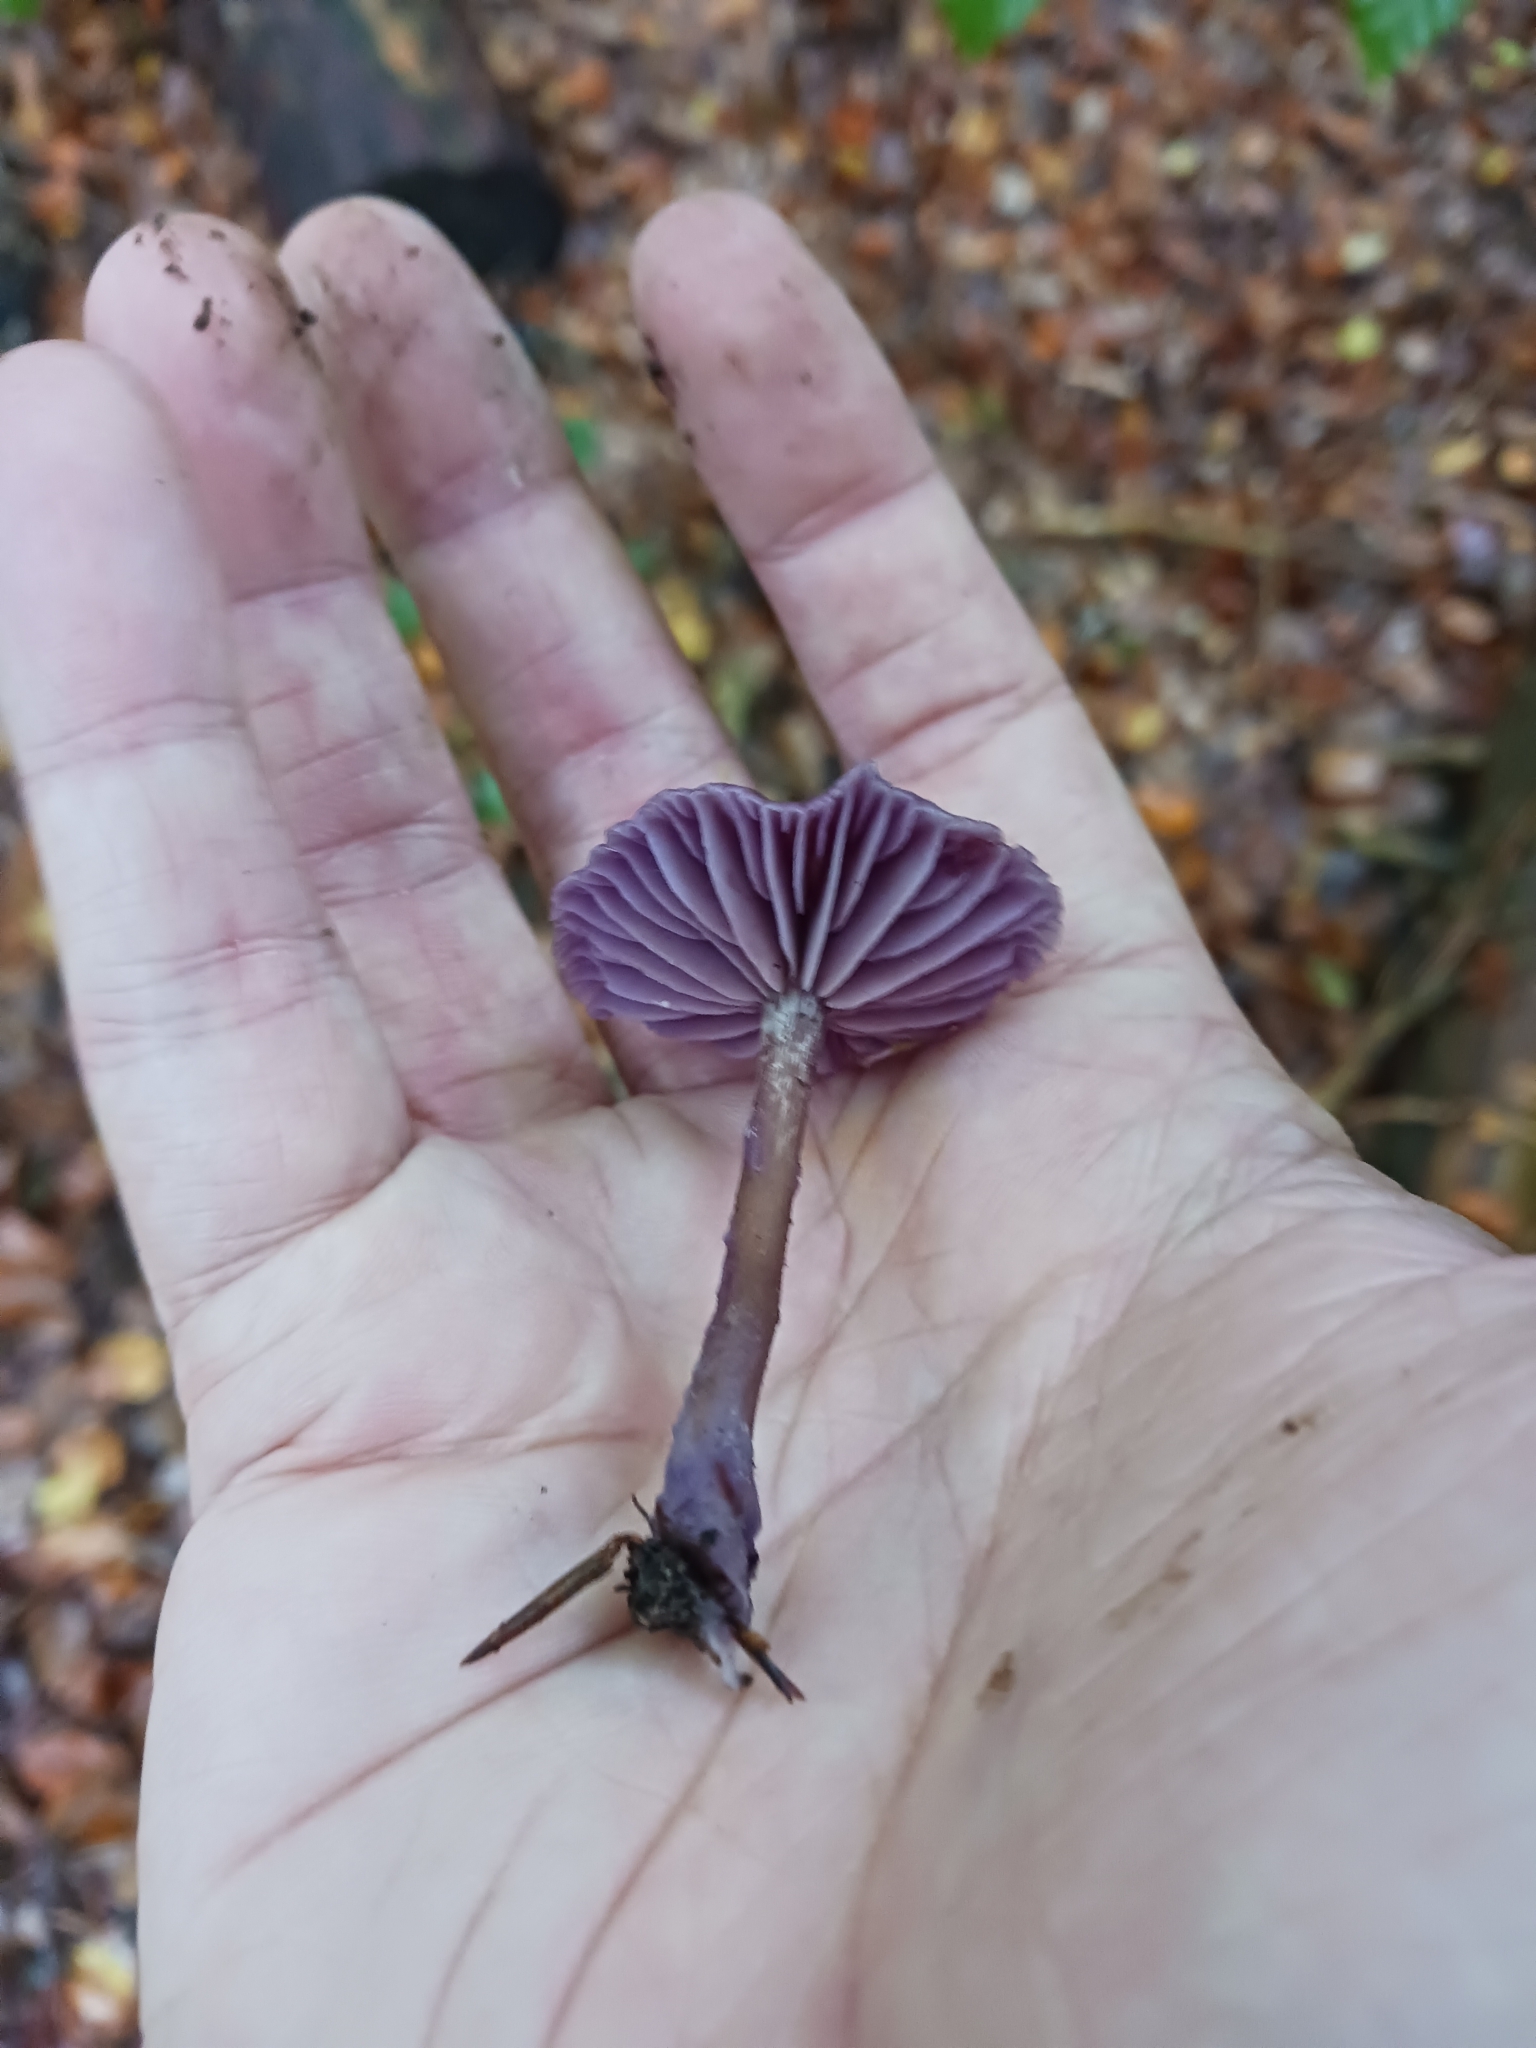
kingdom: Fungi
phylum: Basidiomycota
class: Agaricomycetes
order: Agaricales
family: Hydnangiaceae
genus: Laccaria
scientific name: Laccaria amethystina
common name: Amethyst deceiver
